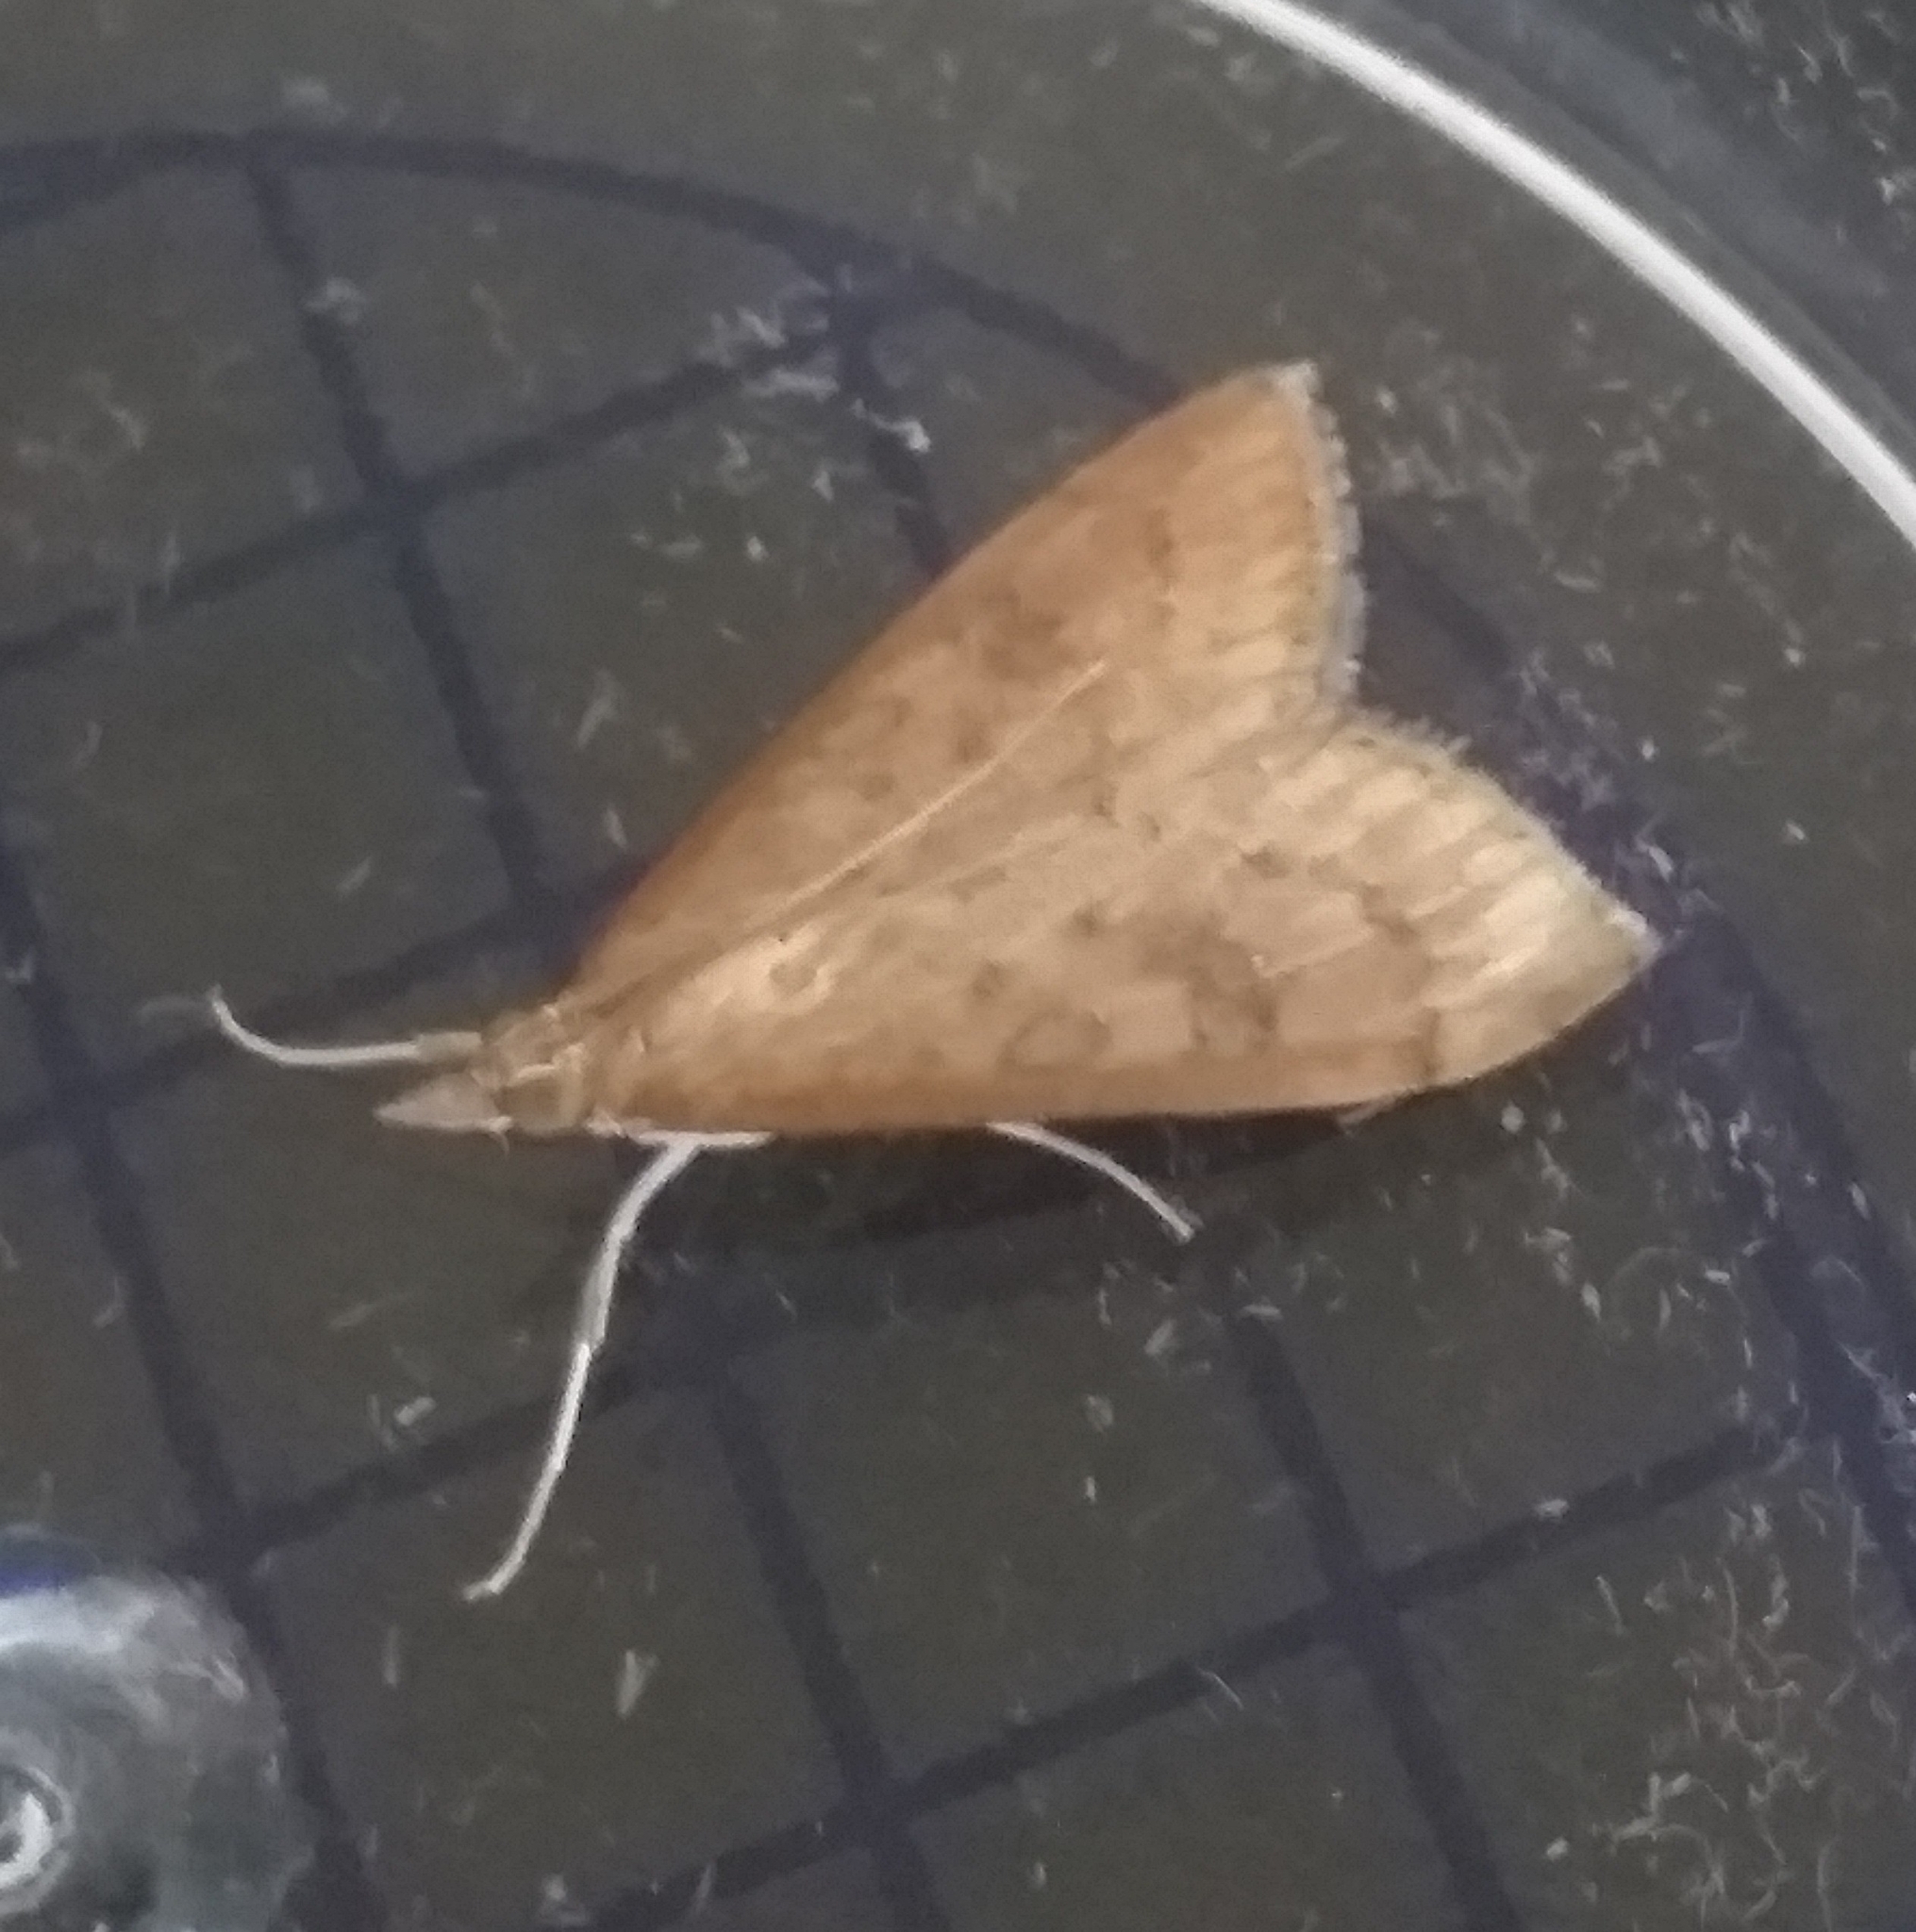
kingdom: Animalia
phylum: Arthropoda
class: Insecta
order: Lepidoptera
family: Crambidae
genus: Udea
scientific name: Udea ferrugalis
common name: Rusty dot
